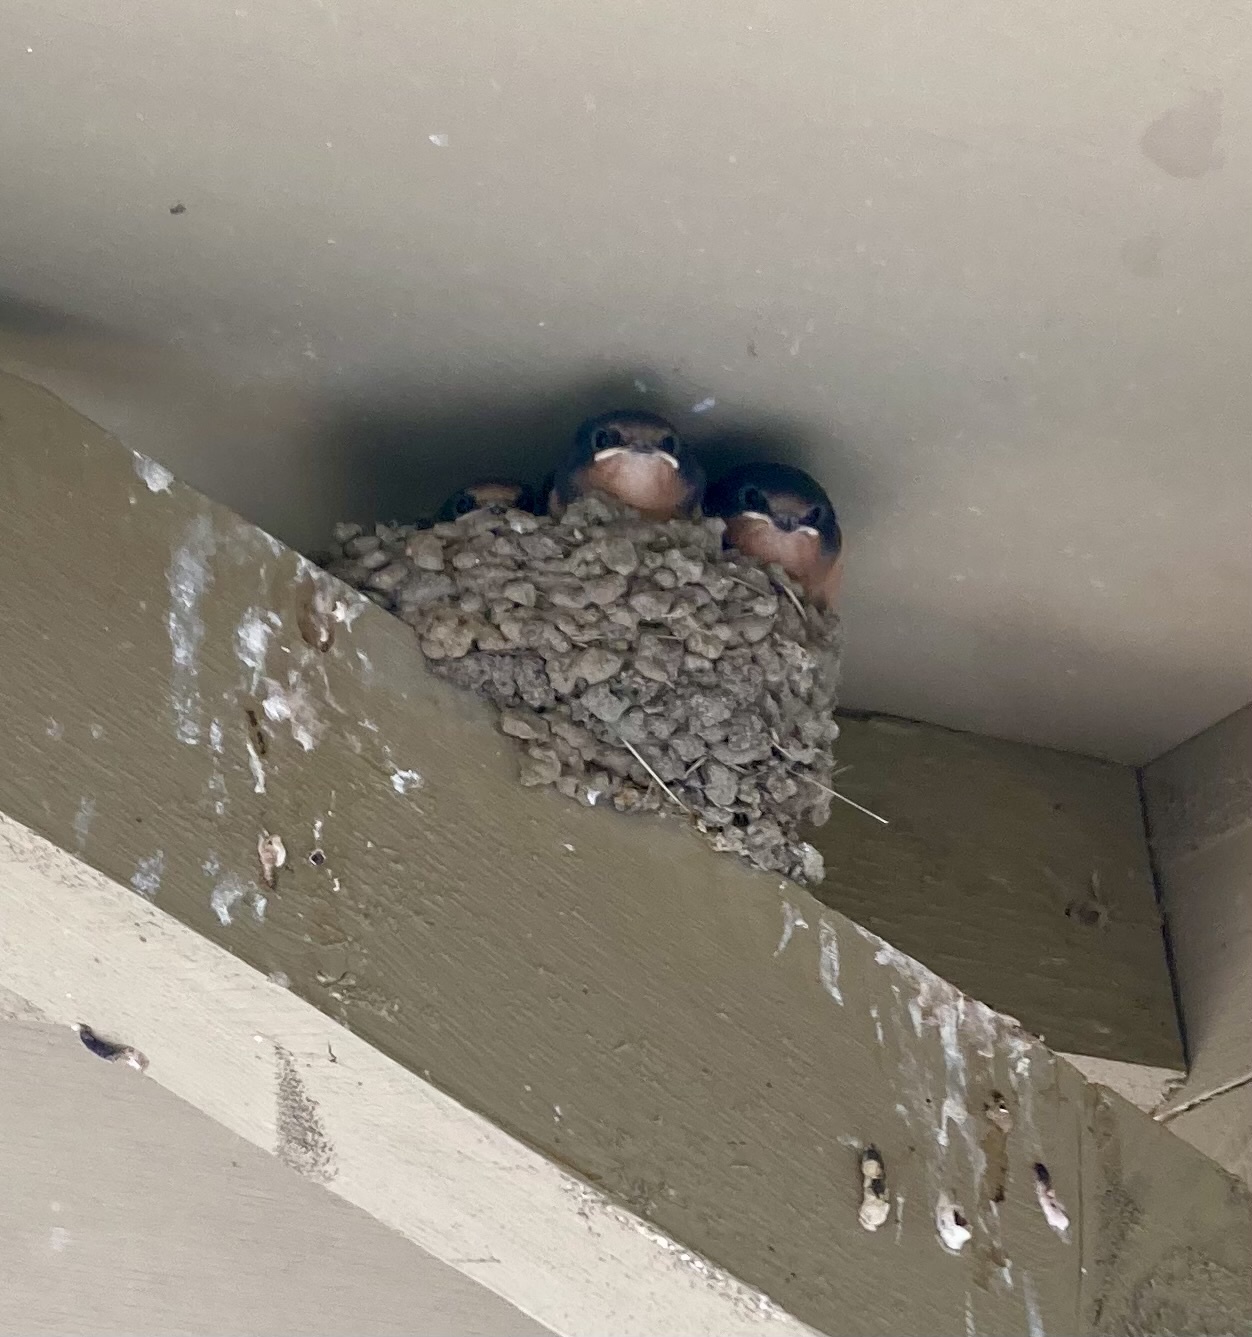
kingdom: Animalia
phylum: Chordata
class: Aves
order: Passeriformes
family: Hirundinidae
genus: Hirundo
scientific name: Hirundo rustica
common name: Barn swallow
